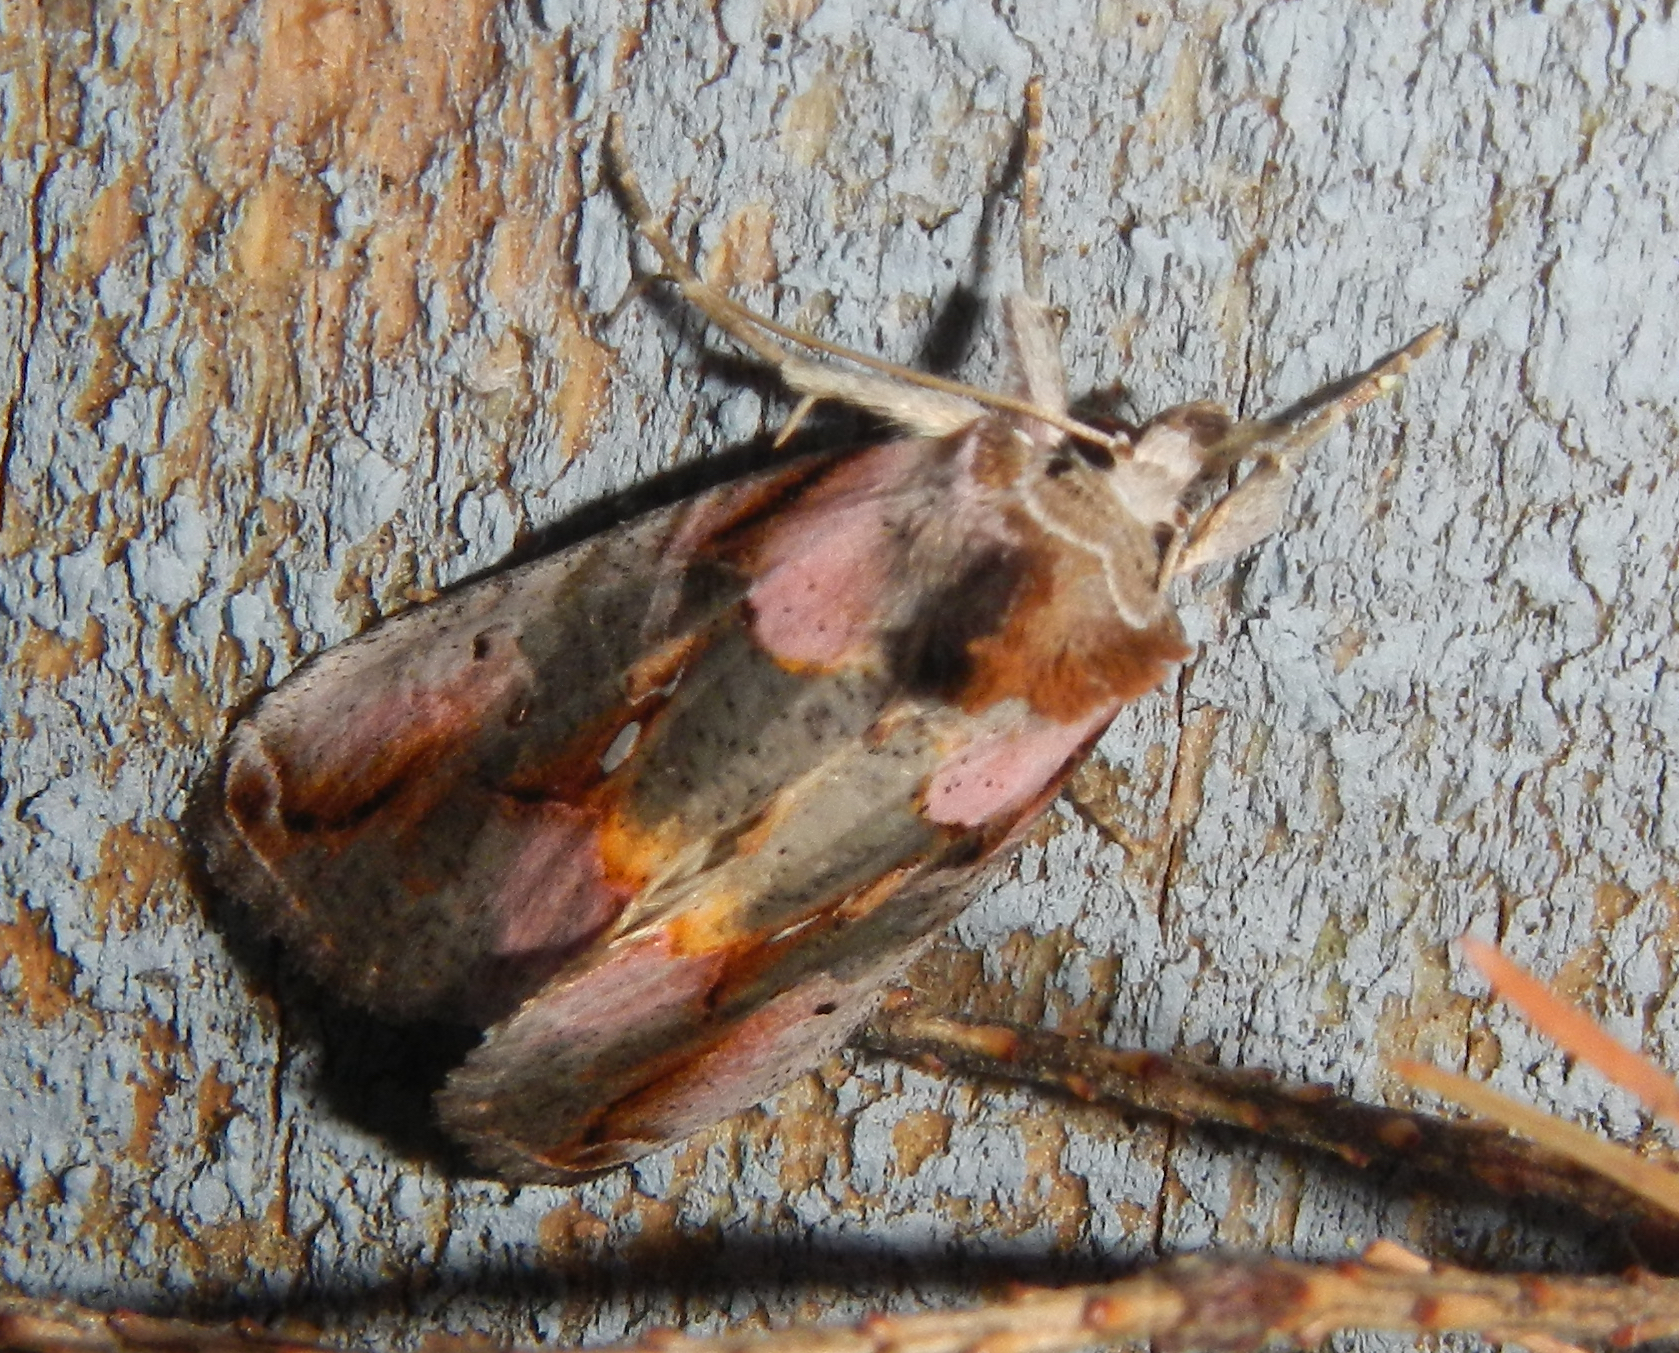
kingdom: Animalia
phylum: Arthropoda
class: Insecta
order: Lepidoptera
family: Noctuidae
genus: Eosphoropteryx
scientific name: Eosphoropteryx thyatyroides
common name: Pinkpatched looper moth
